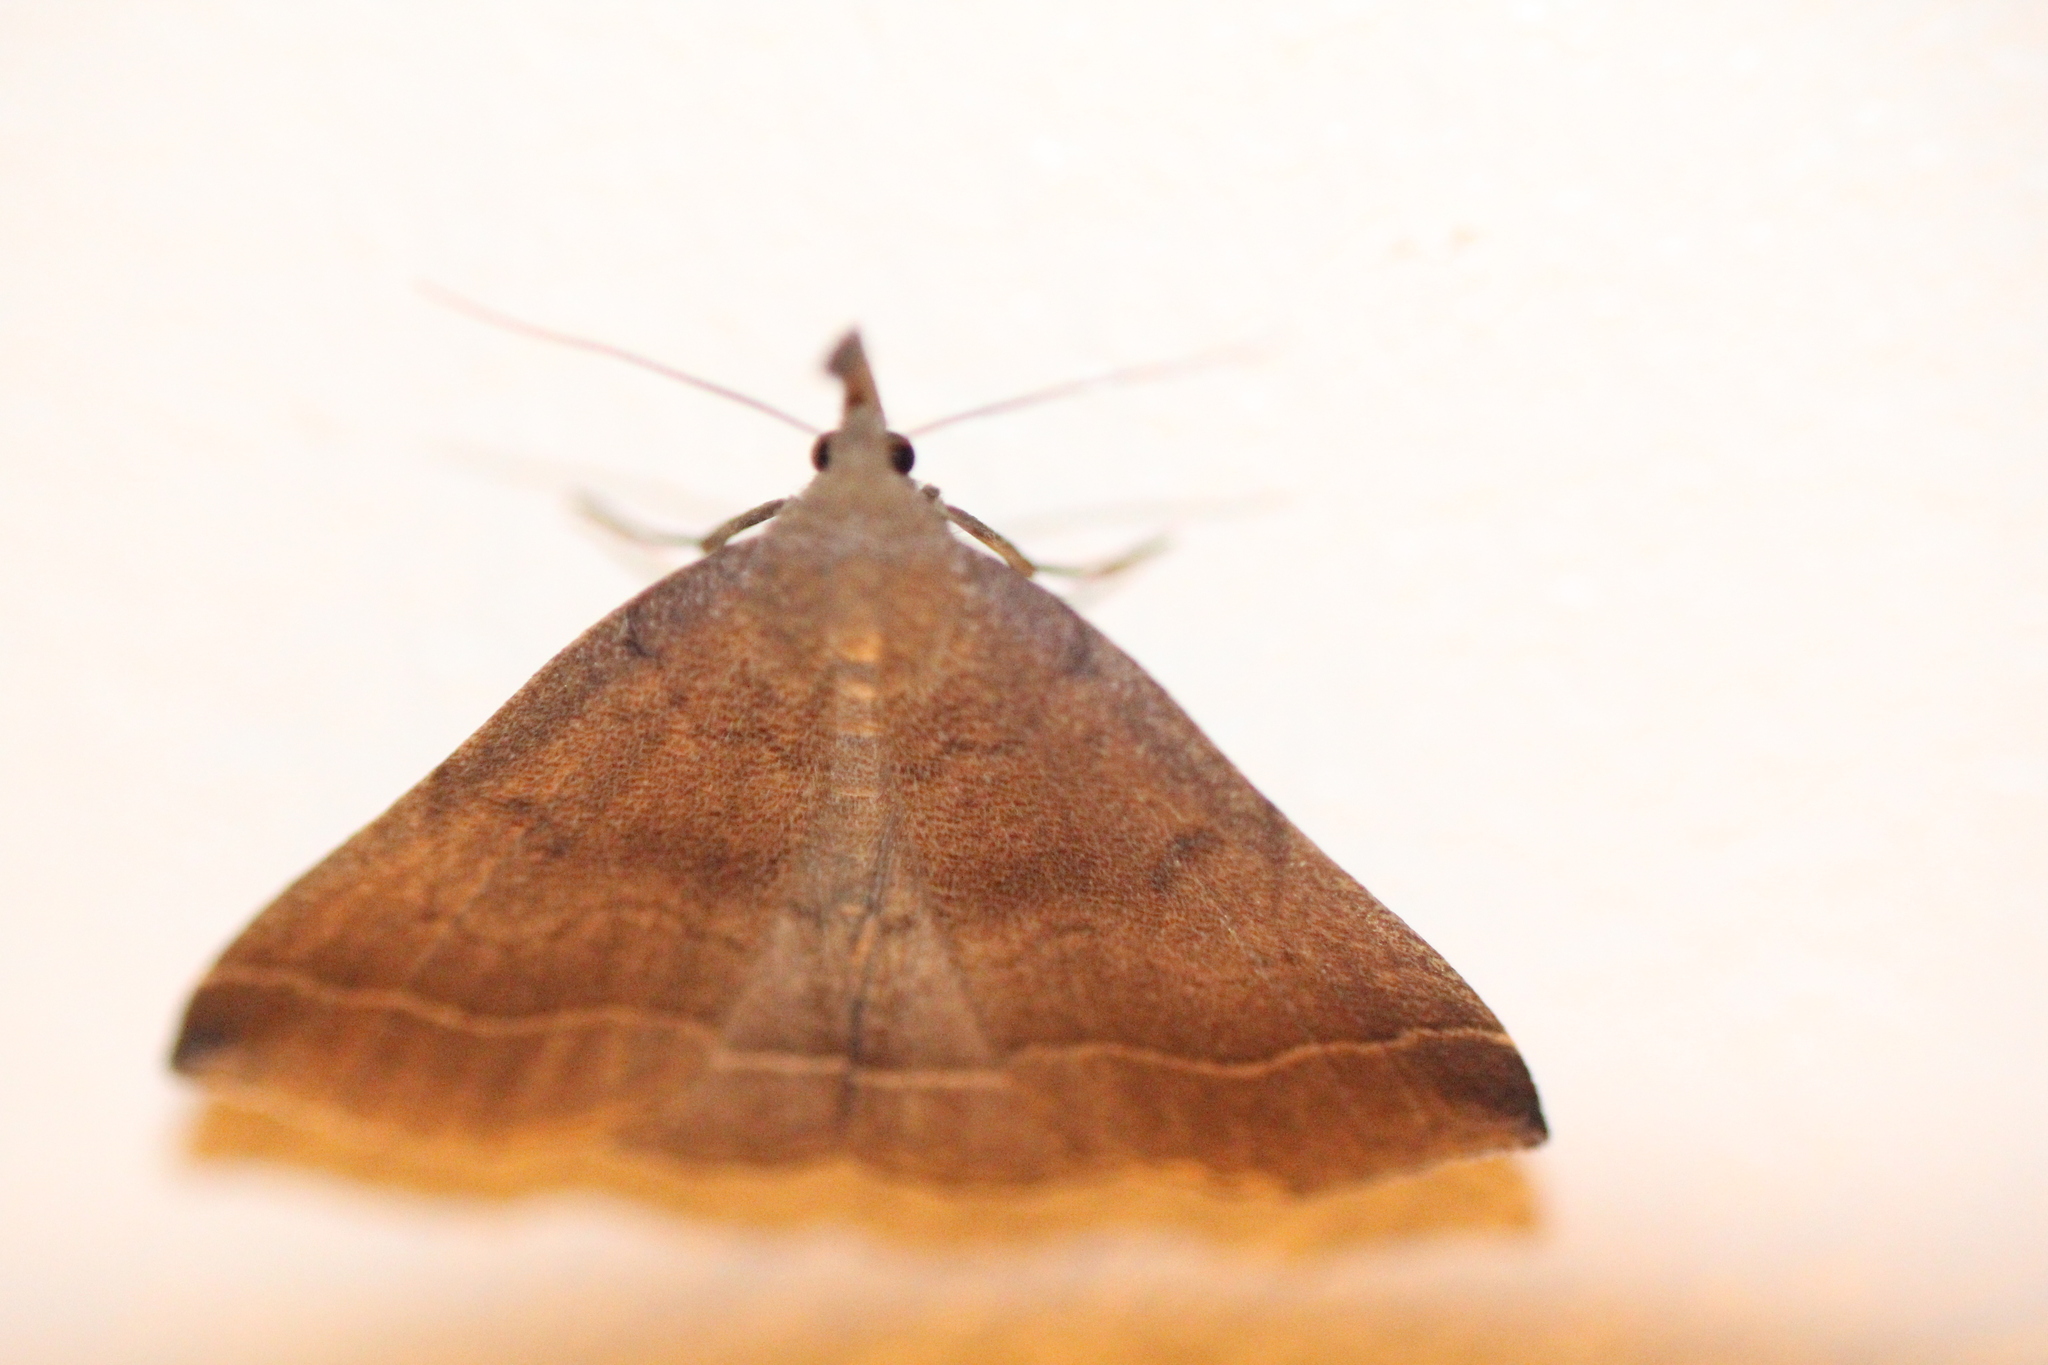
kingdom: Animalia
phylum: Arthropoda
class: Insecta
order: Lepidoptera
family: Erebidae
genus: Pechipogo
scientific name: Pechipogo plumigeralis
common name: Plumed fan-foot
